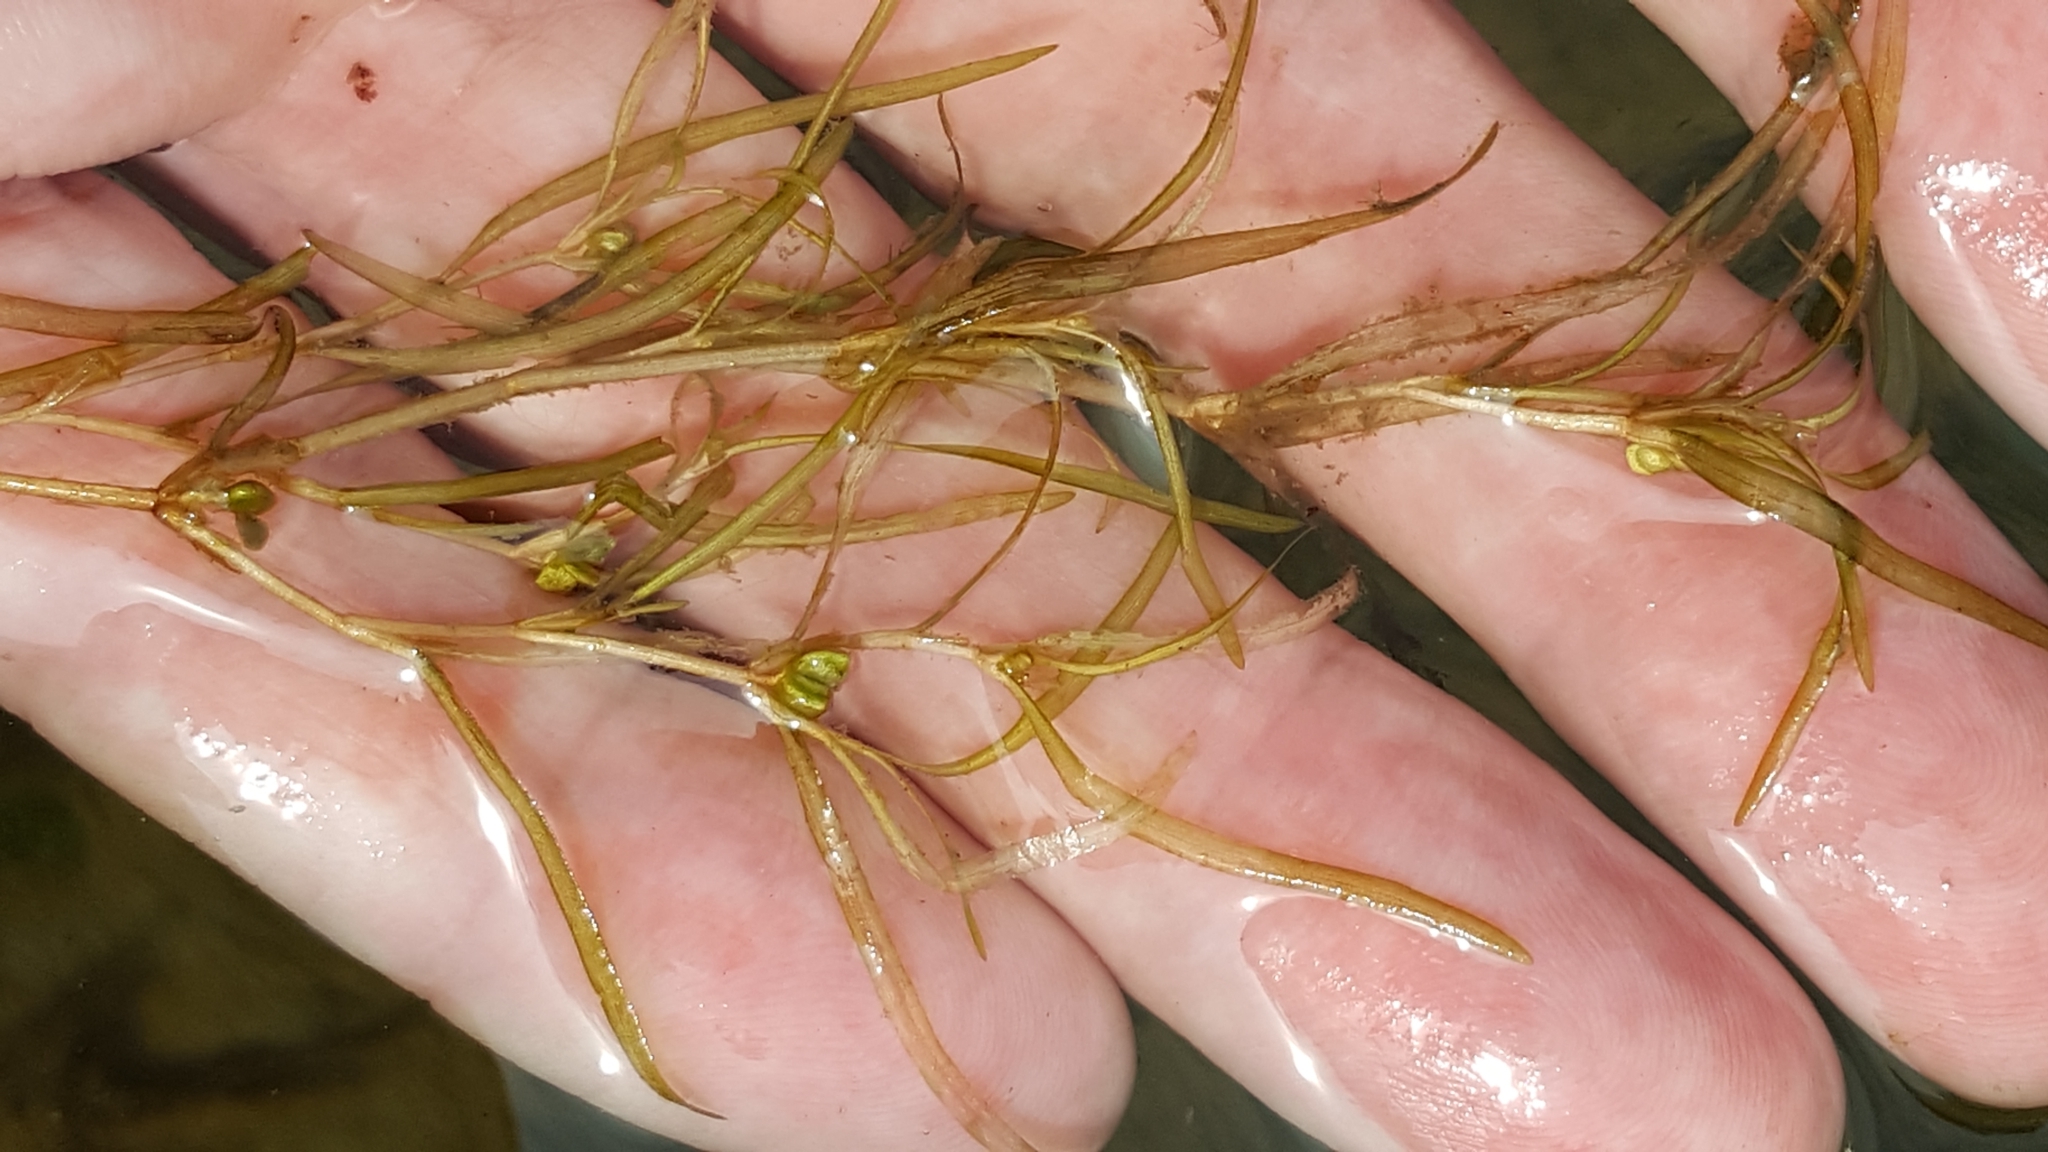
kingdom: Plantae
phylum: Tracheophyta
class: Liliopsida
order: Alismatales
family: Potamogetonaceae
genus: Potamogeton
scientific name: Potamogeton spirillus
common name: Northern snail-seed pondweed
